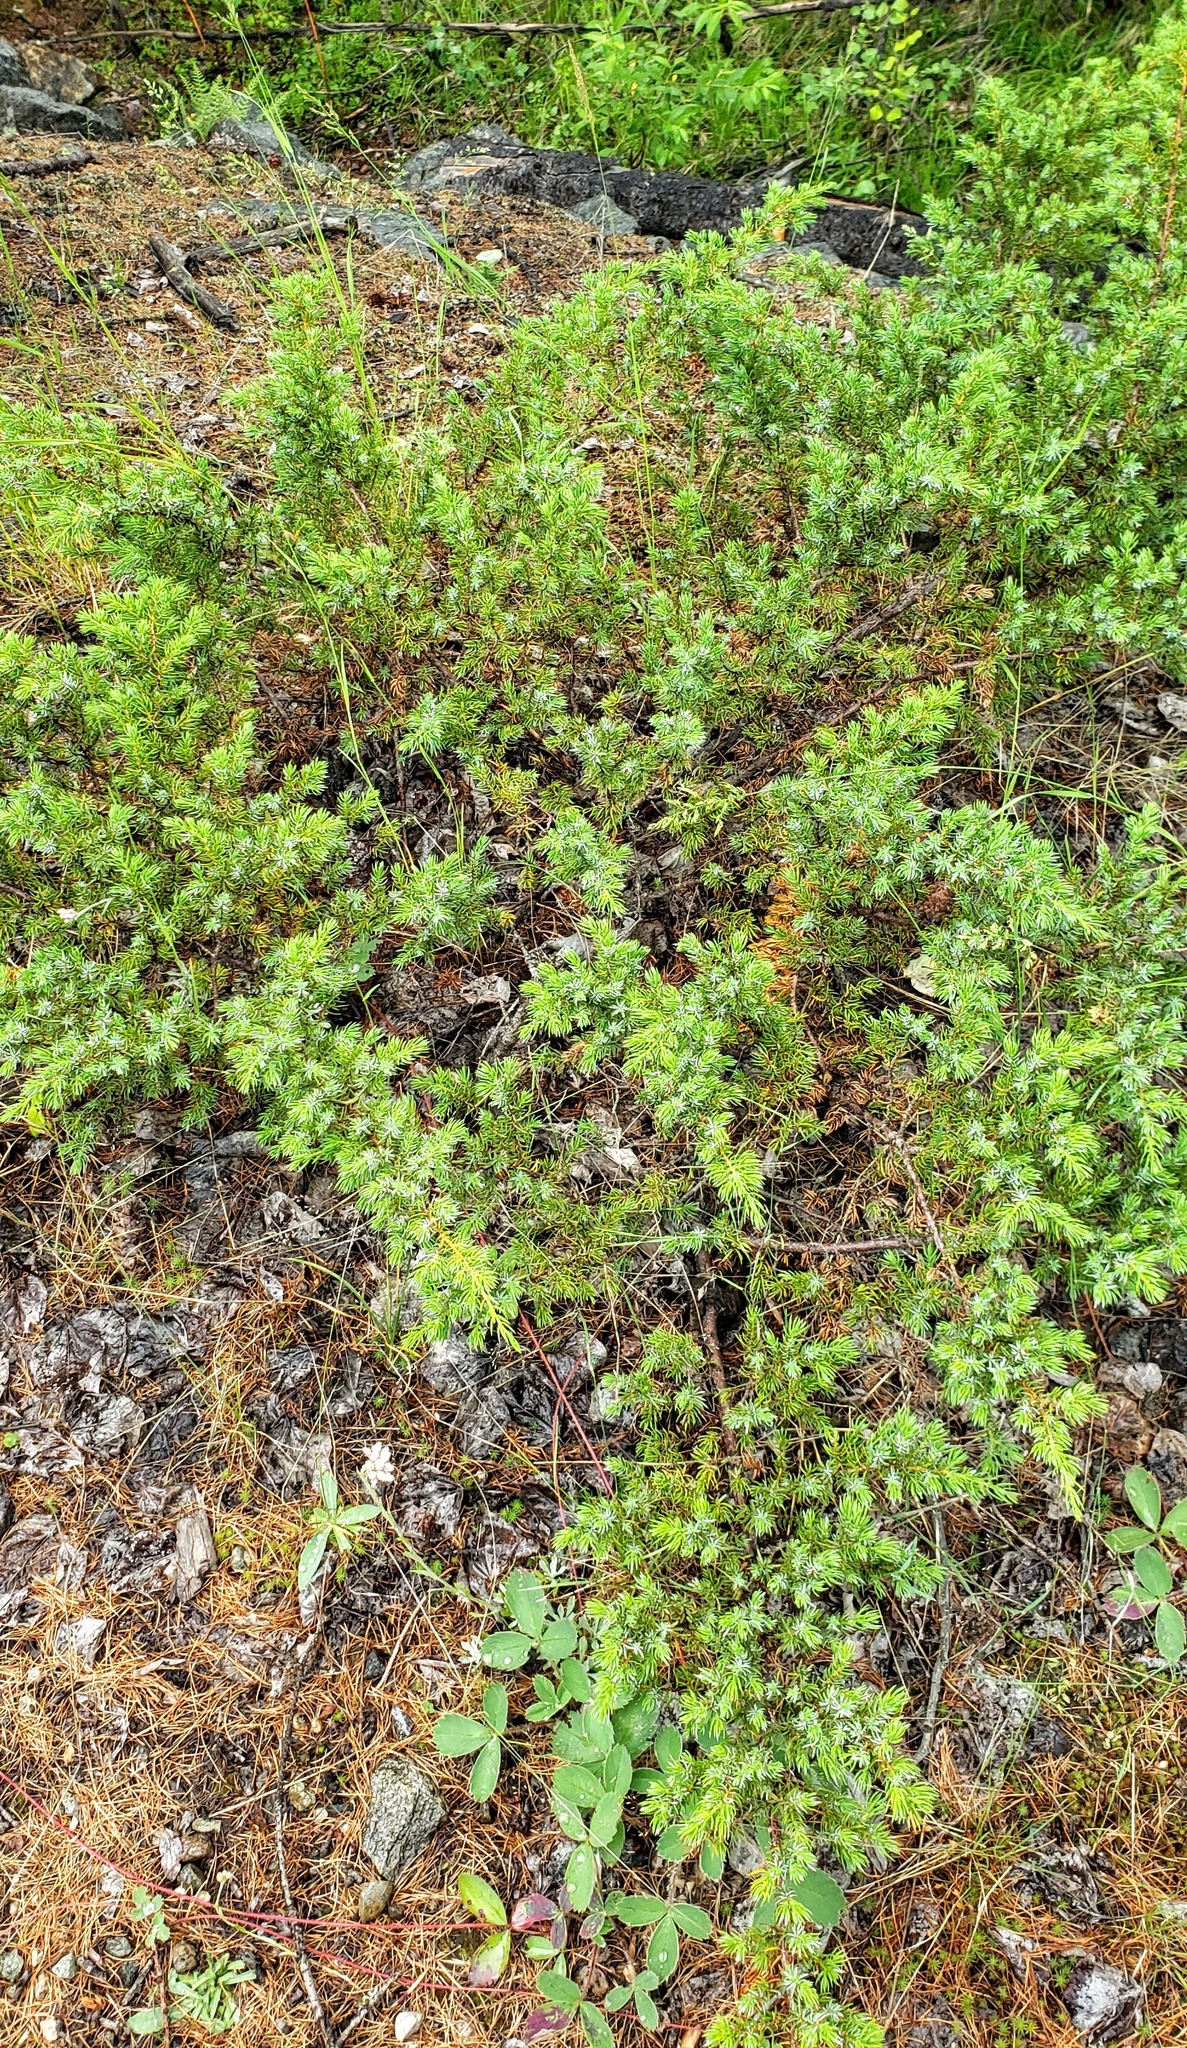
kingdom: Plantae
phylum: Tracheophyta
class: Pinopsida
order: Pinales
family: Cupressaceae
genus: Juniperus
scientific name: Juniperus communis
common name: Common juniper
